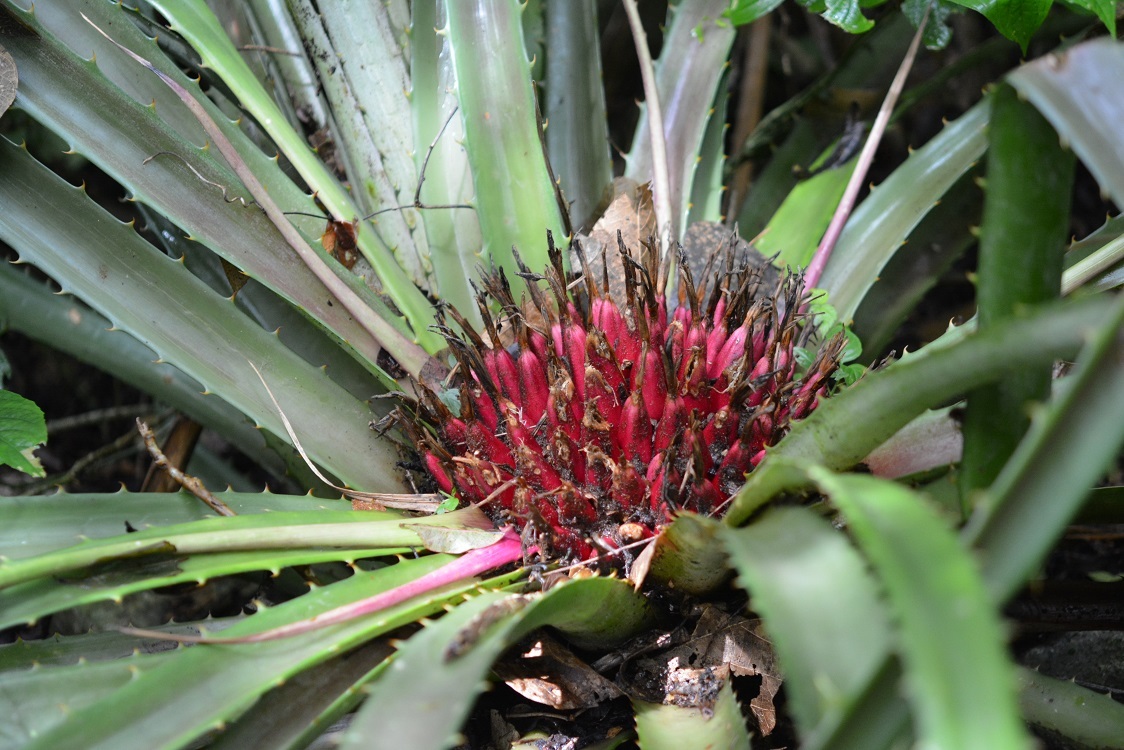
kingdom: Plantae
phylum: Tracheophyta
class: Liliopsida
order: Poales
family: Bromeliaceae
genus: Bromelia
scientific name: Bromelia karatas
